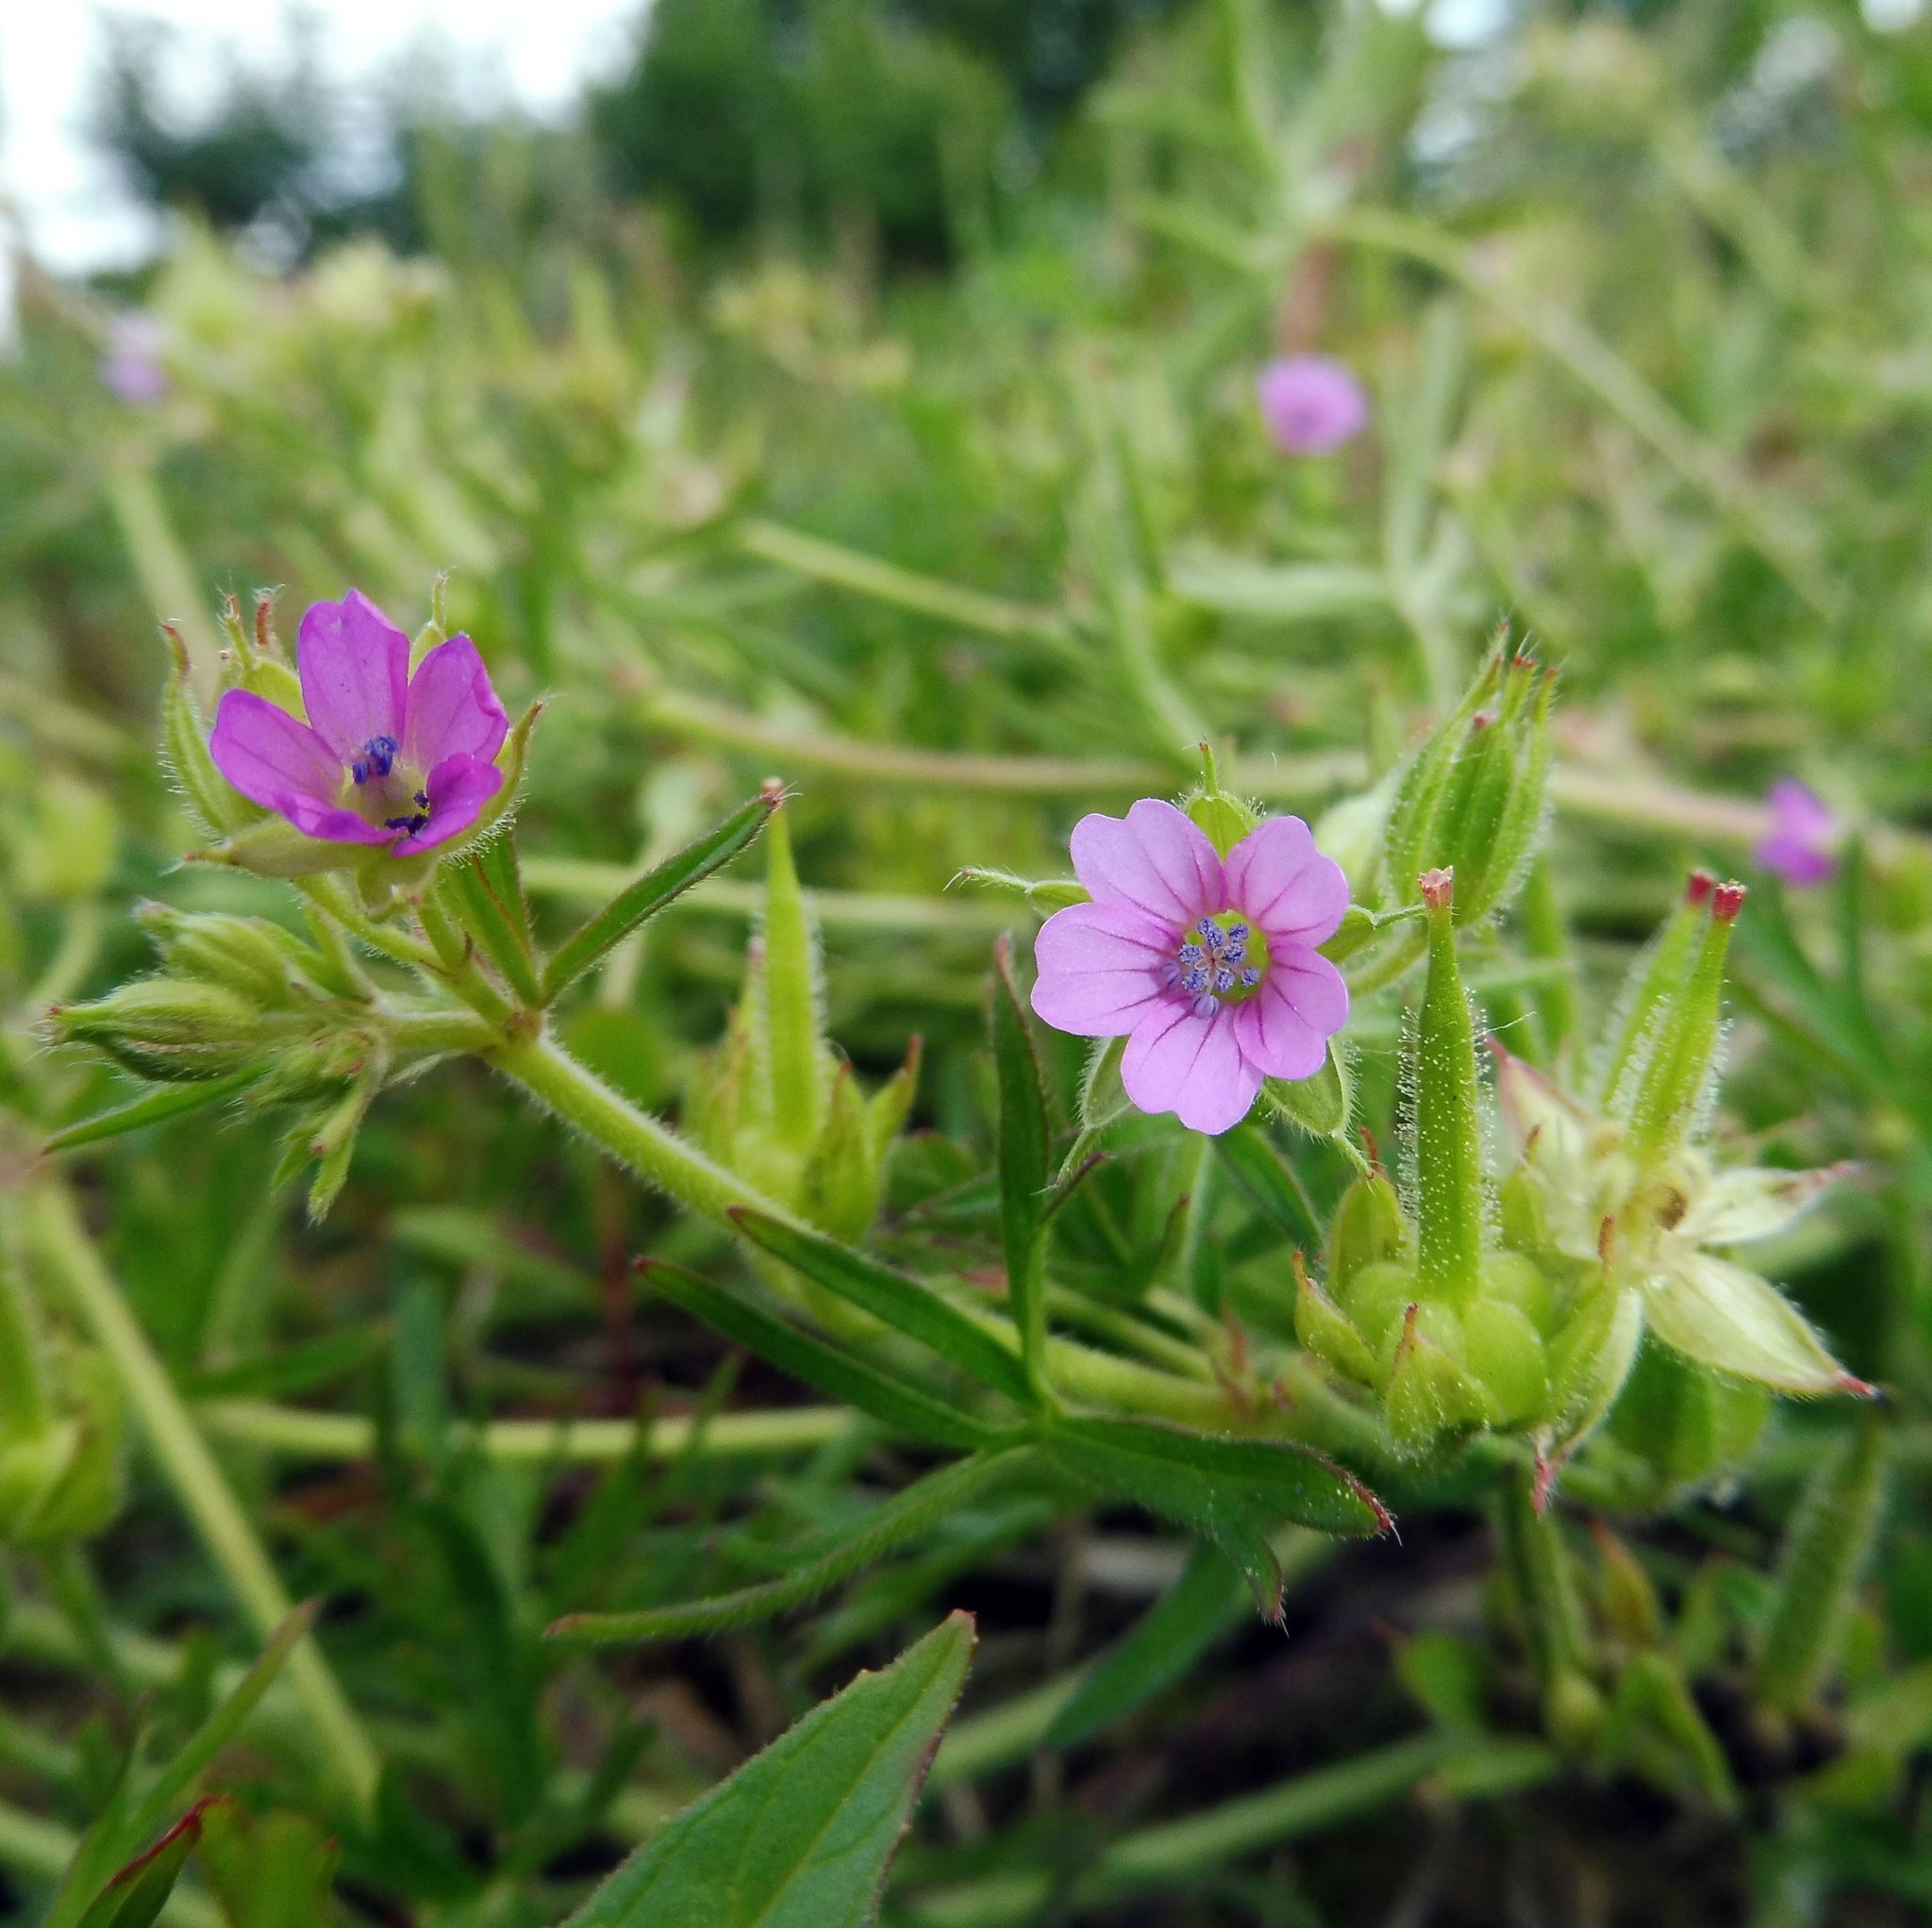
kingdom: Plantae
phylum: Tracheophyta
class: Magnoliopsida
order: Geraniales
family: Geraniaceae
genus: Geranium
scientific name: Geranium dissectum
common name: Cut-leaved crane's-bill
